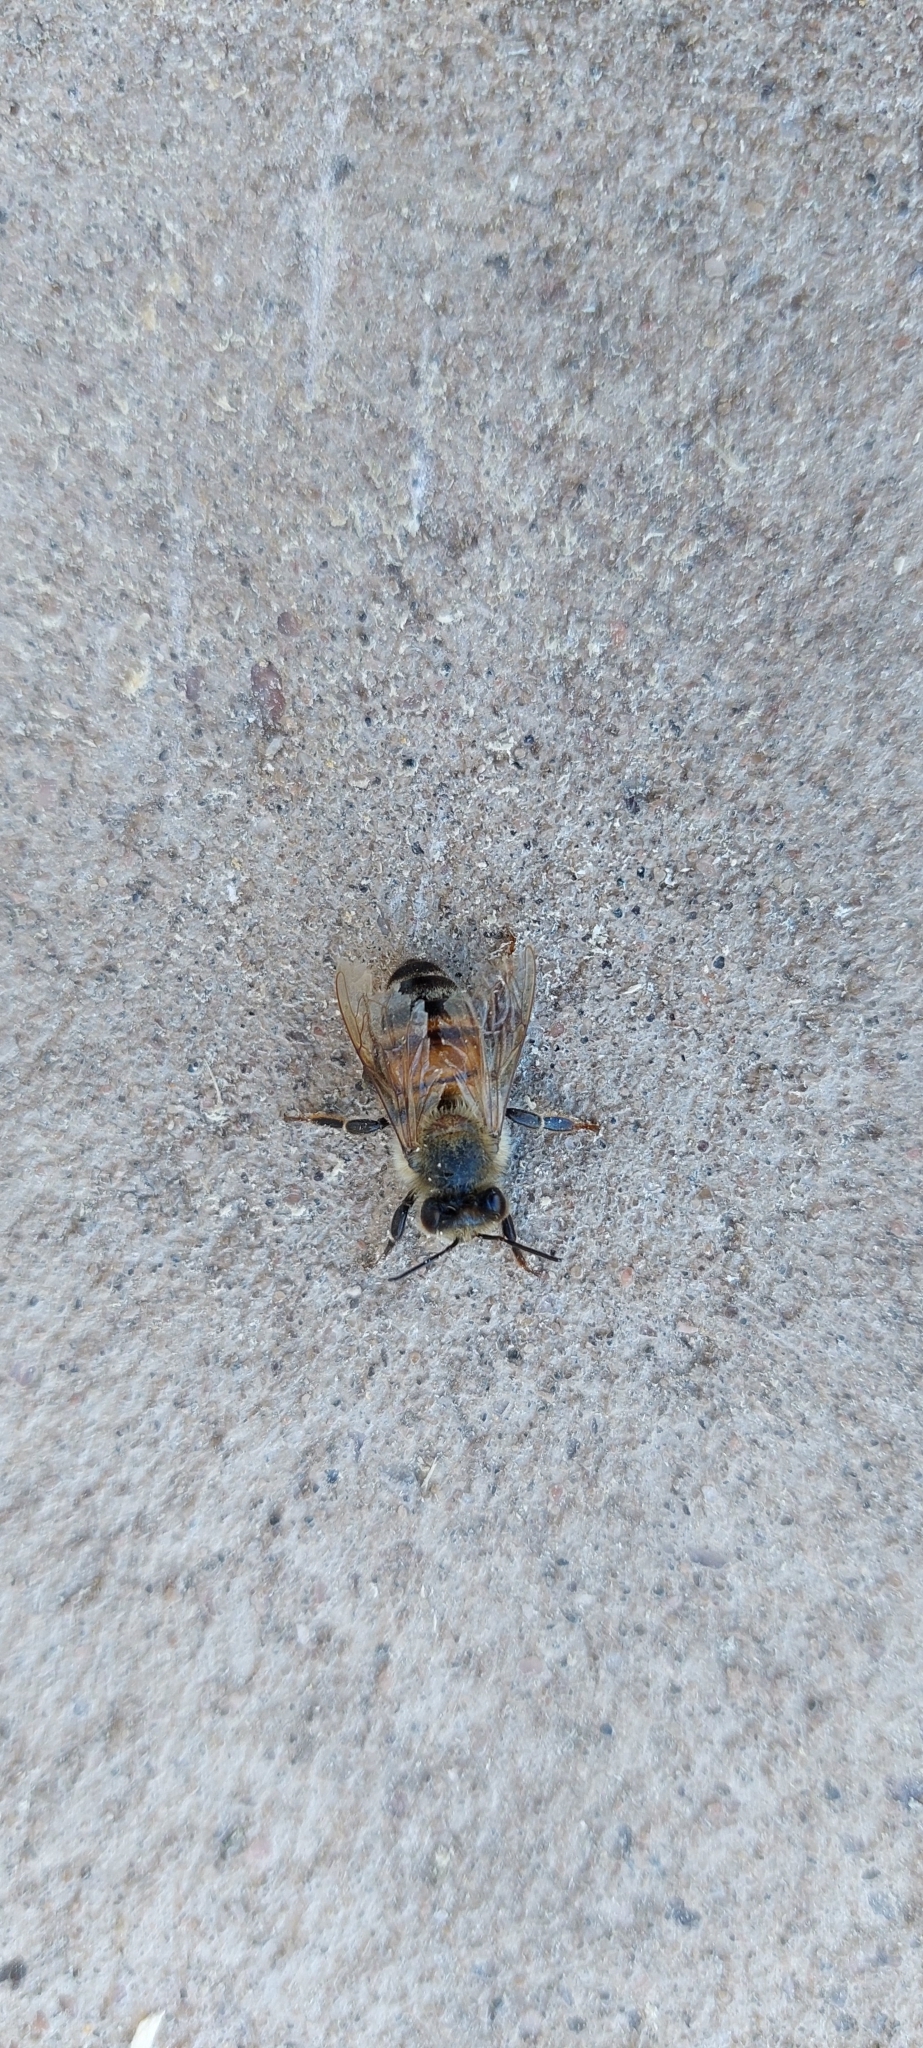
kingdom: Animalia
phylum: Arthropoda
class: Insecta
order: Hymenoptera
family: Apidae
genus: Apis
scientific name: Apis mellifera
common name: Honey bee
